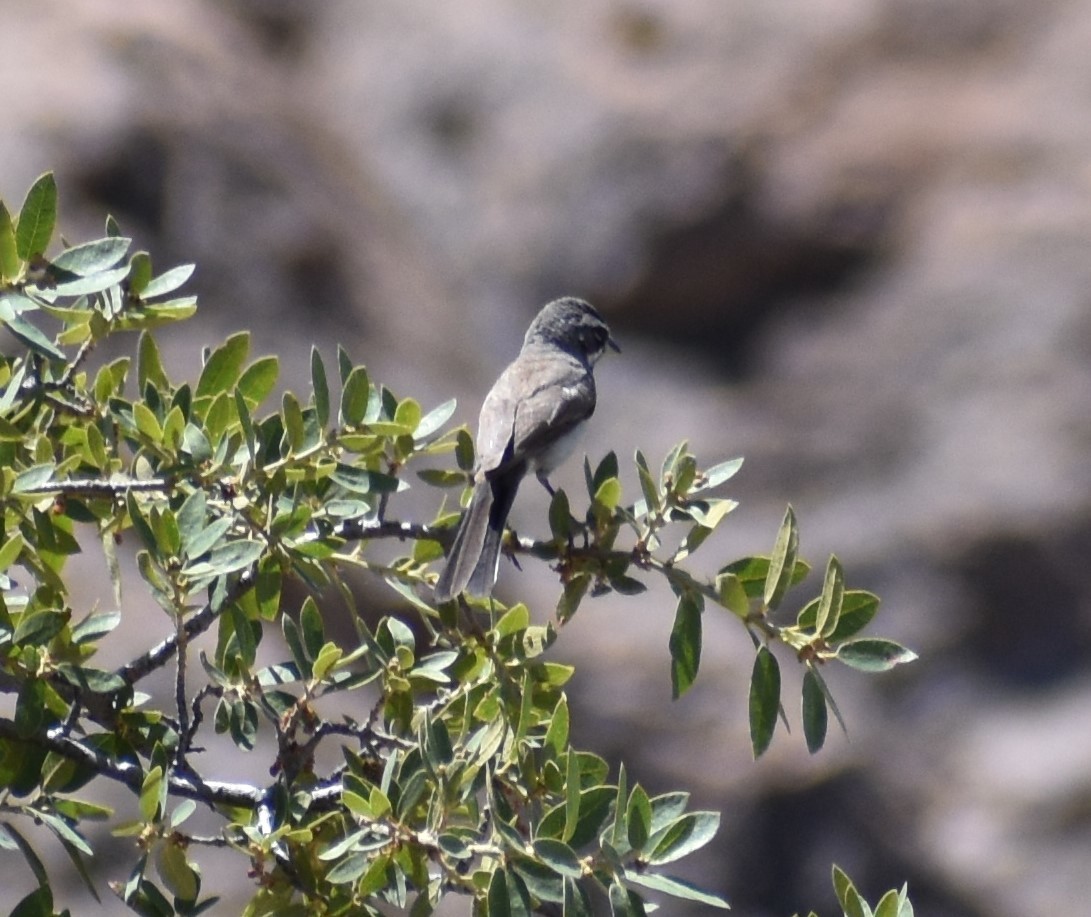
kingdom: Animalia
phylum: Chordata
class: Aves
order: Passeriformes
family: Passerellidae
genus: Amphispiza
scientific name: Amphispiza bilineata
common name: Black-throated sparrow
